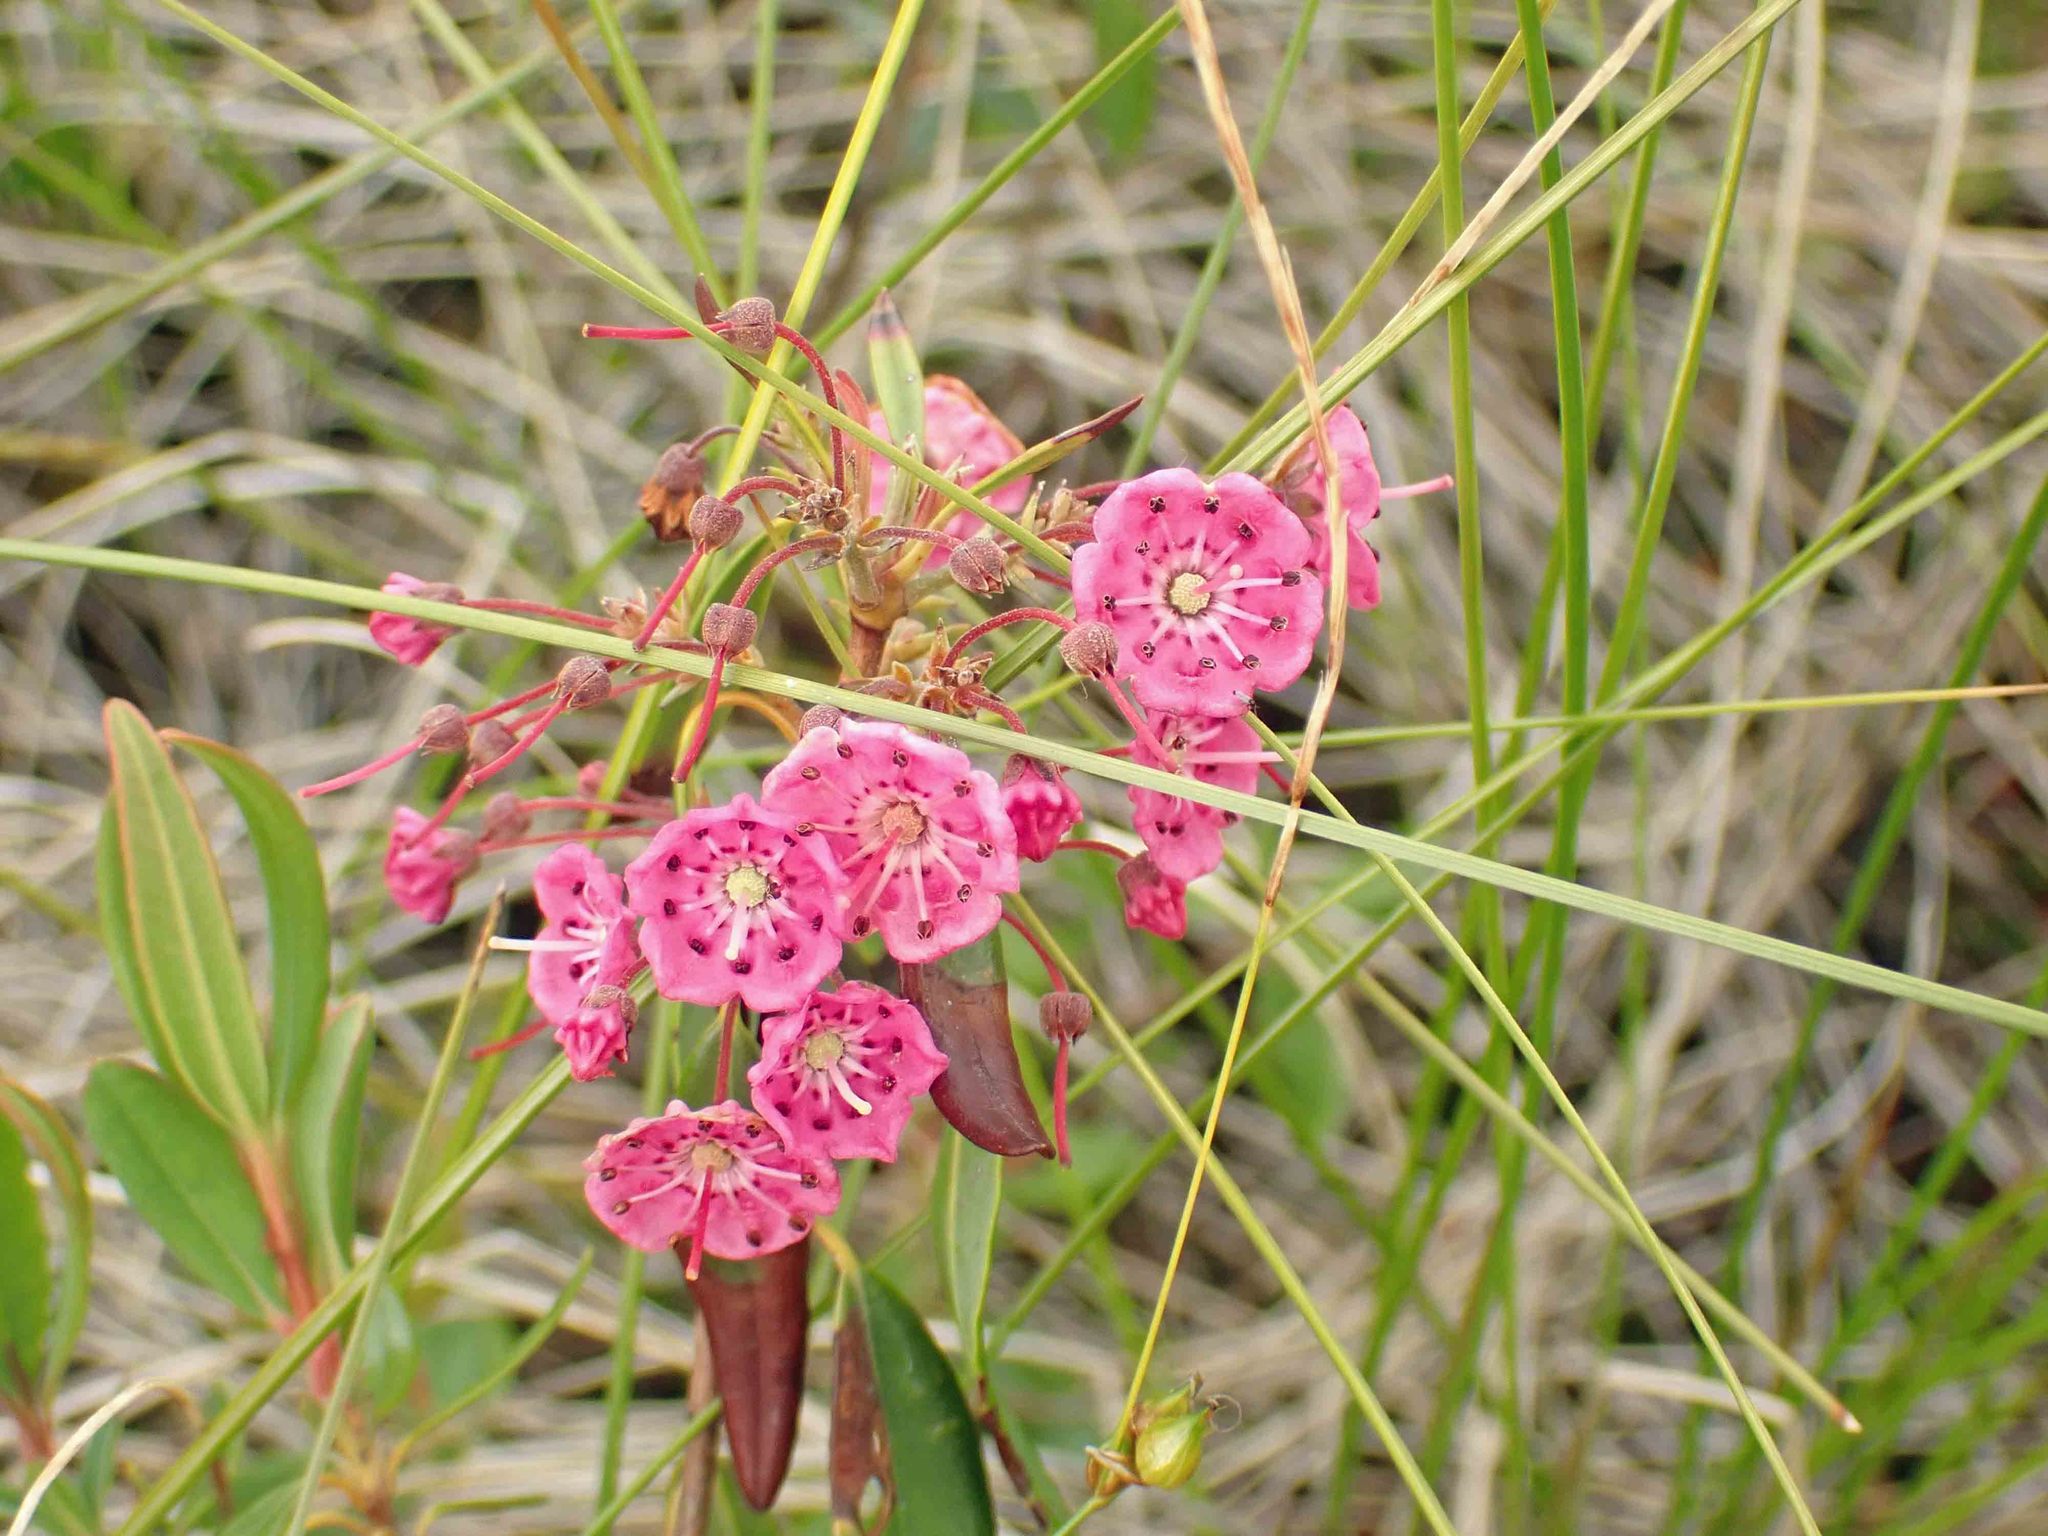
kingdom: Plantae
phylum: Tracheophyta
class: Magnoliopsida
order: Ericales
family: Ericaceae
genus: Kalmia
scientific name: Kalmia polifolia
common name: Bog-laurel
